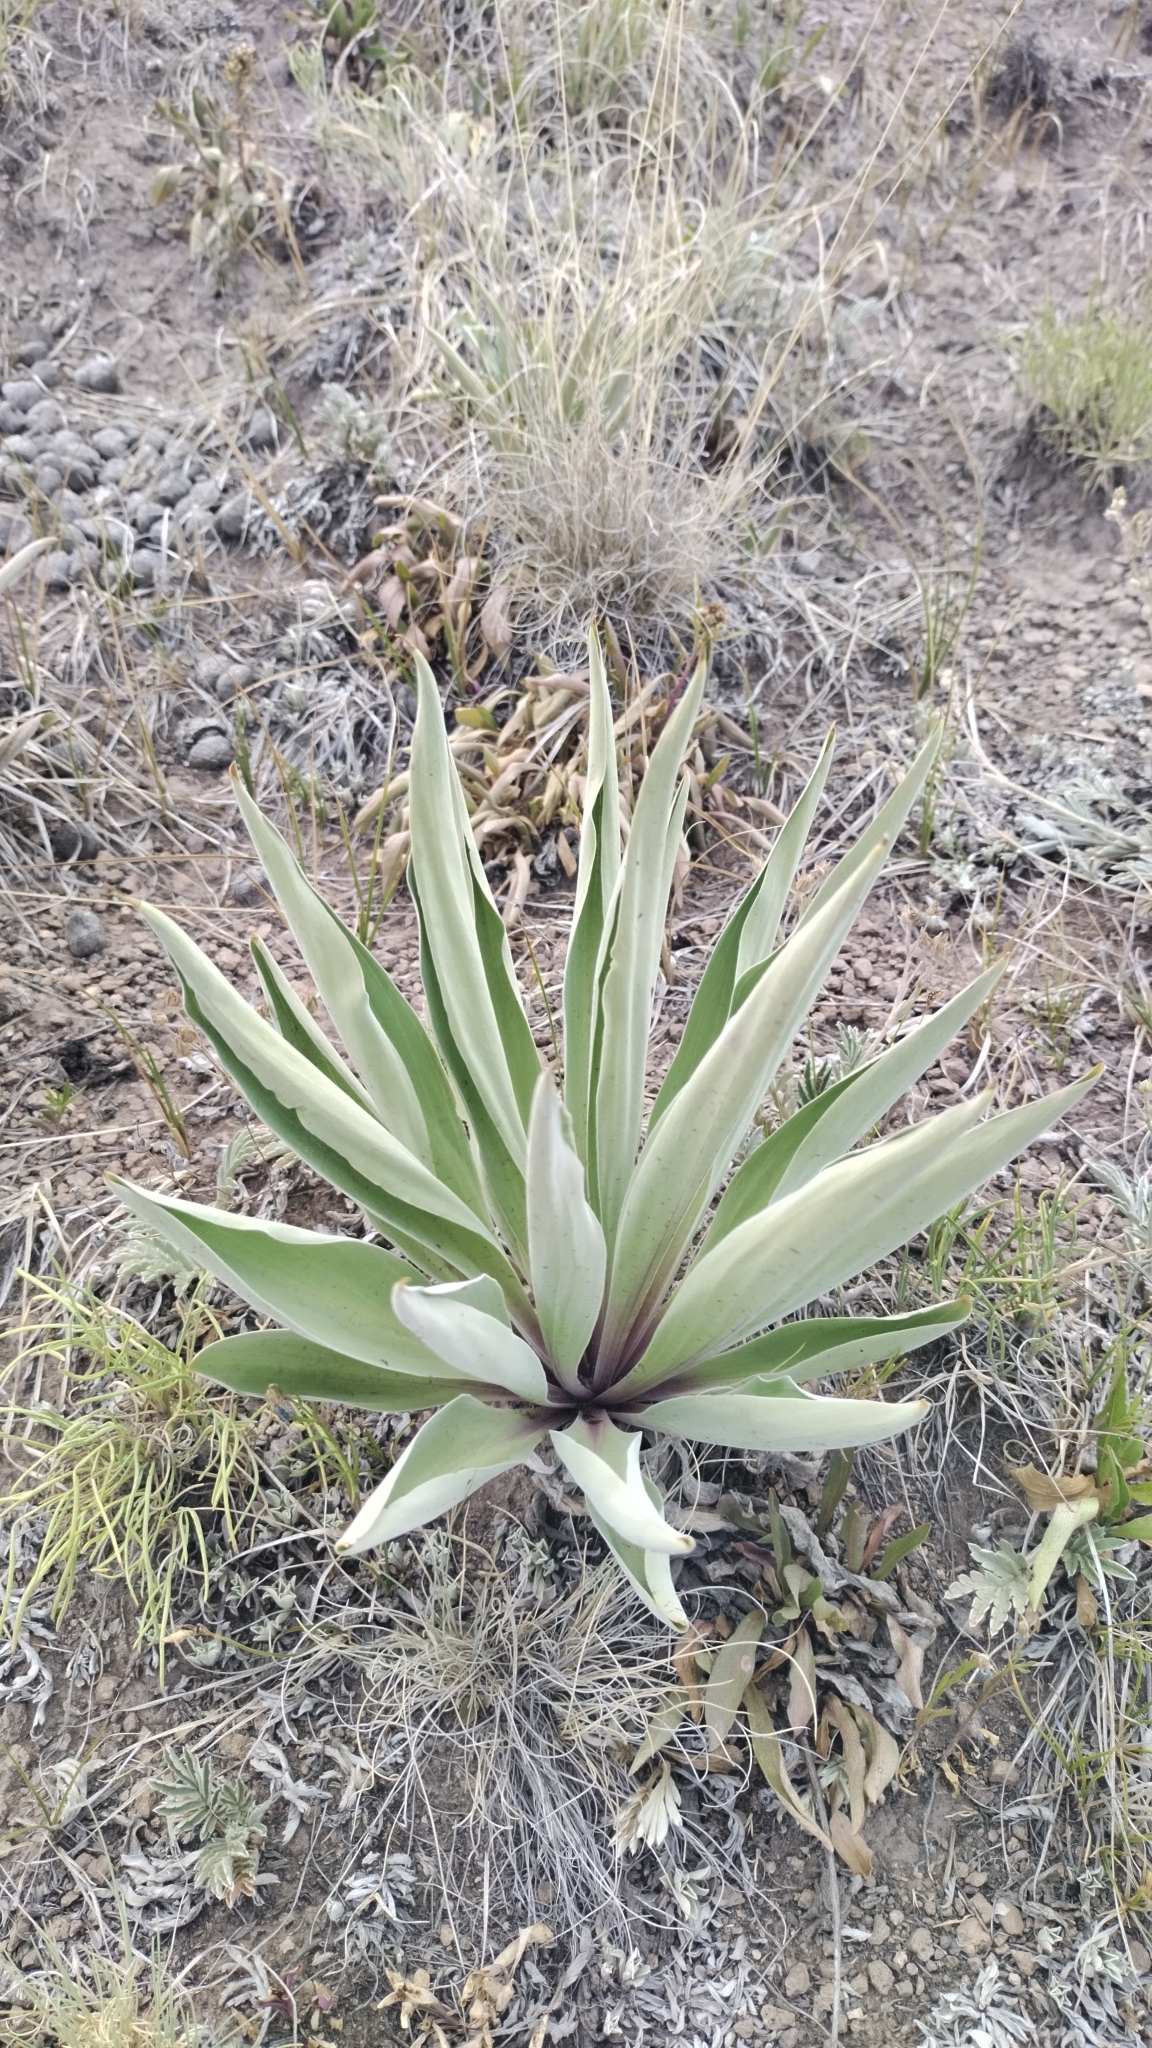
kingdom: Plantae
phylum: Tracheophyta
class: Magnoliopsida
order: Gentianales
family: Gentianaceae
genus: Frasera
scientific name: Frasera speciosa
